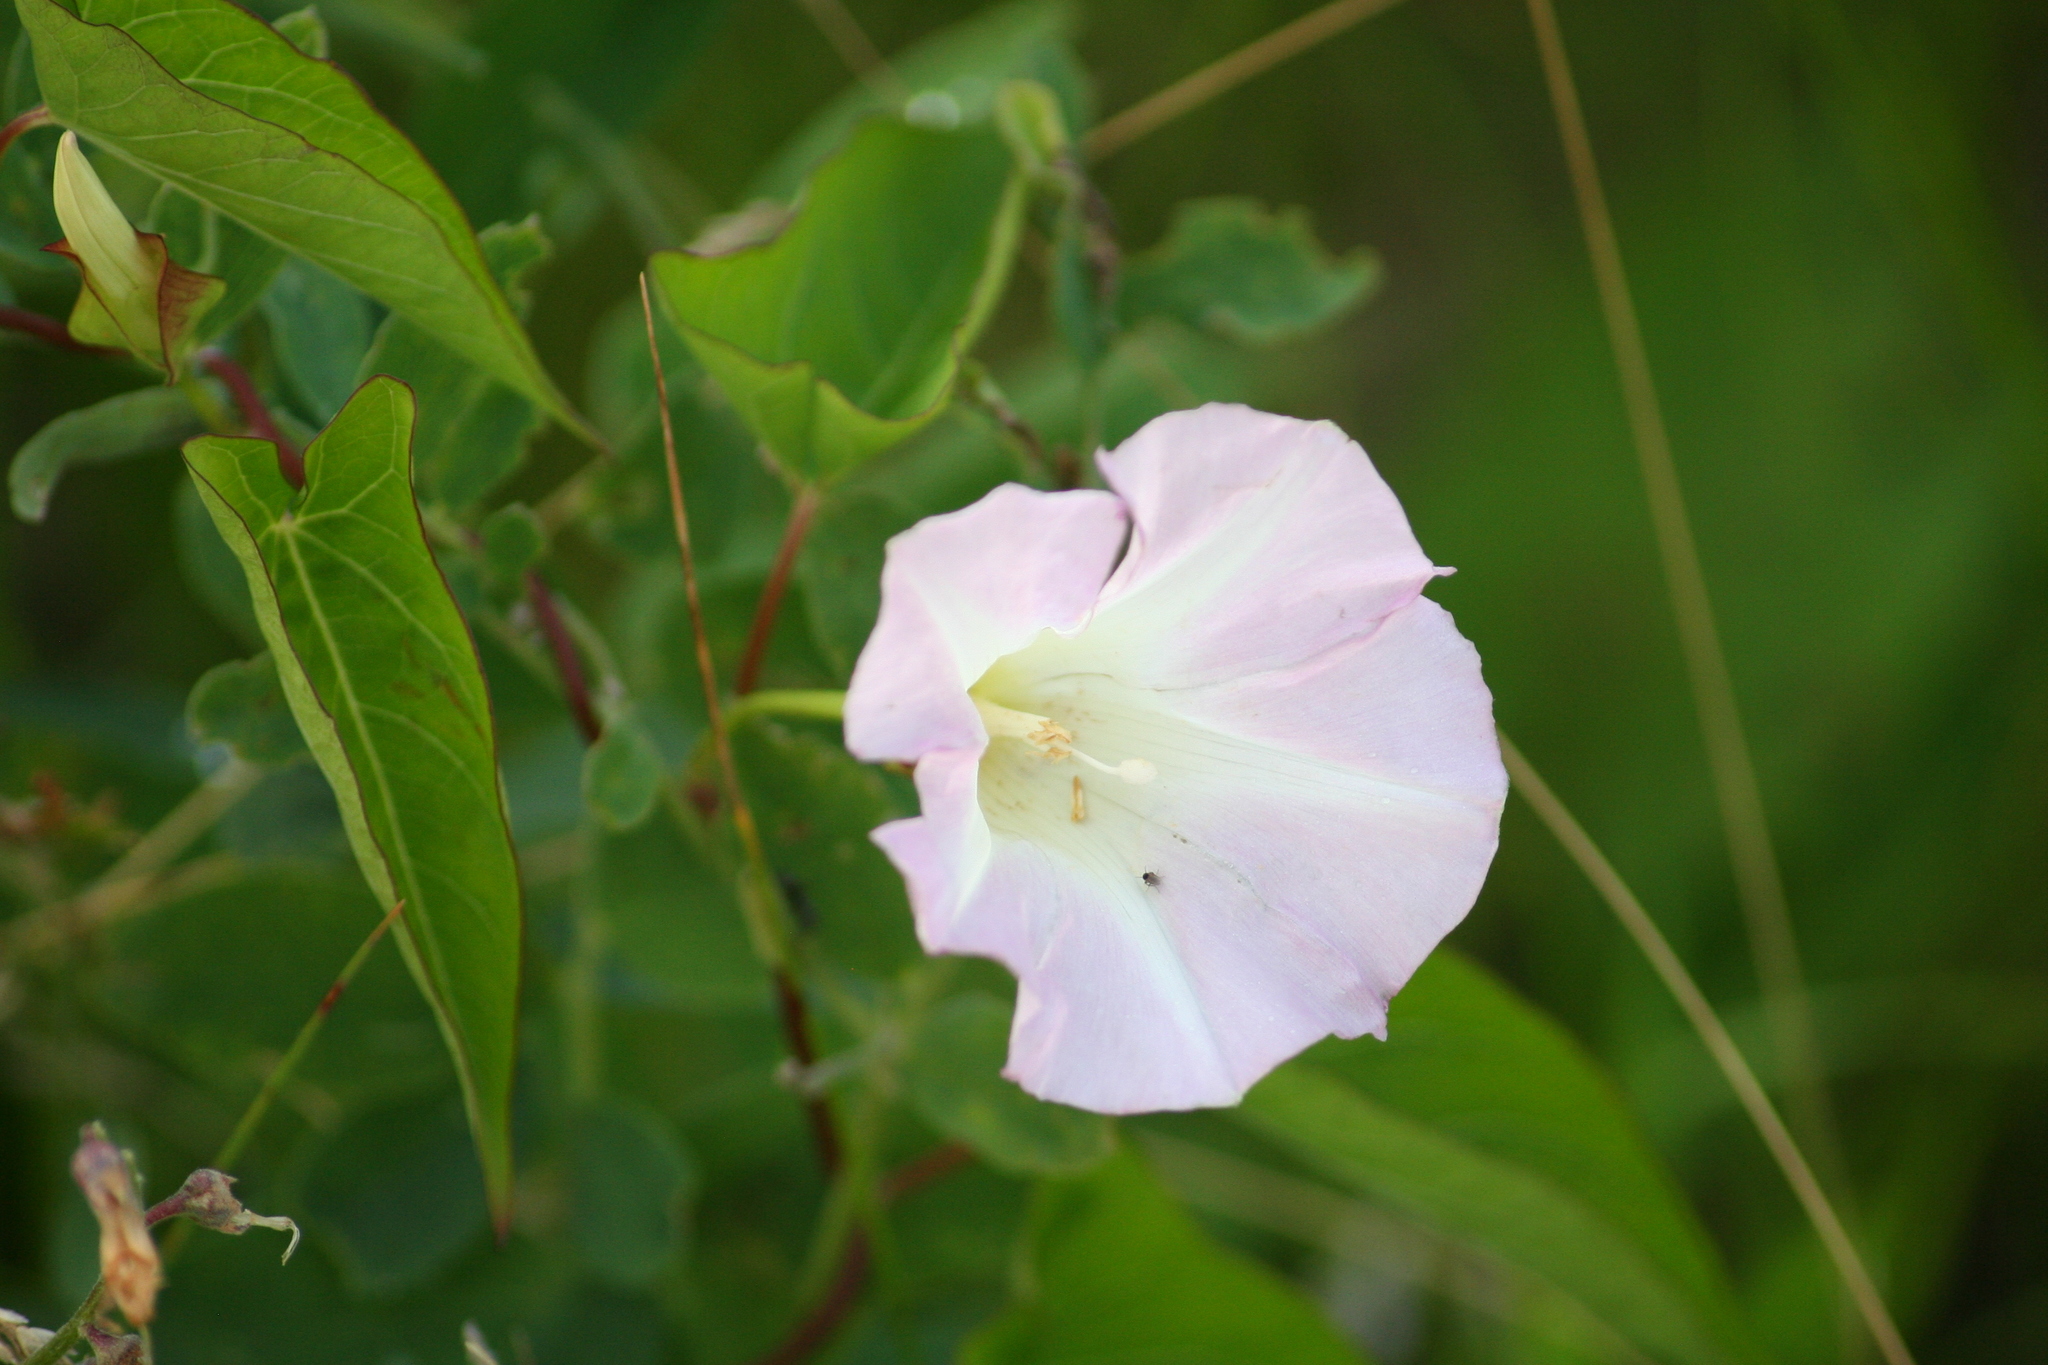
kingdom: Plantae
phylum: Tracheophyta
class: Magnoliopsida
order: Solanales
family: Convolvulaceae
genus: Convolvulus
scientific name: Convolvulus arvensis
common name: Field bindweed
